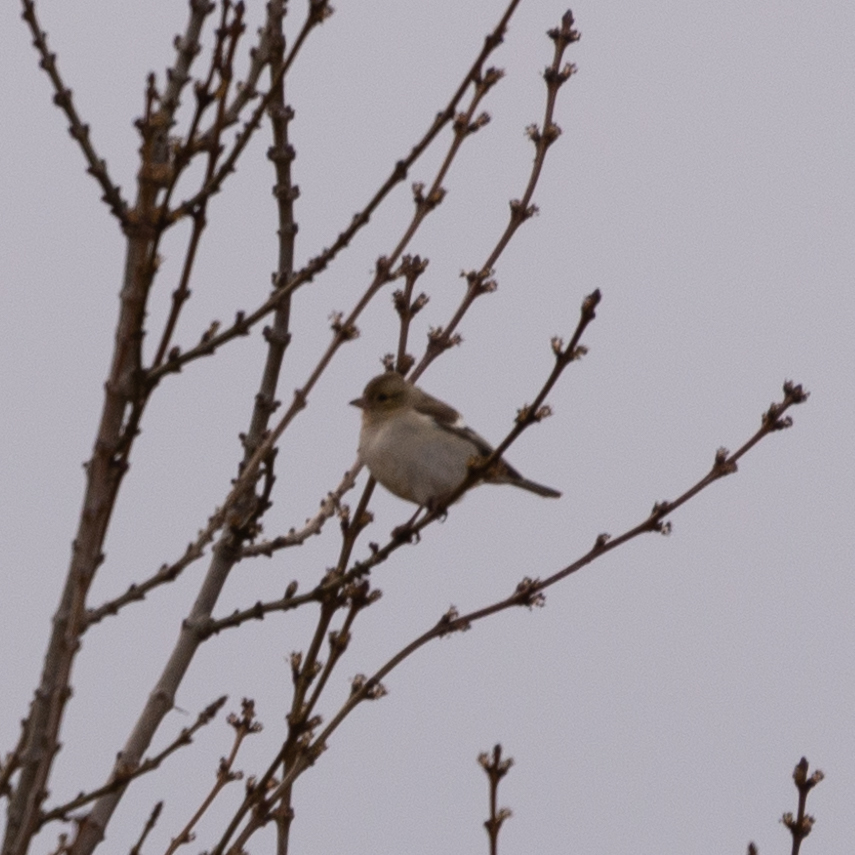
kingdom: Animalia
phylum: Chordata
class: Aves
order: Passeriformes
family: Fringillidae
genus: Fringilla
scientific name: Fringilla coelebs
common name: Common chaffinch
